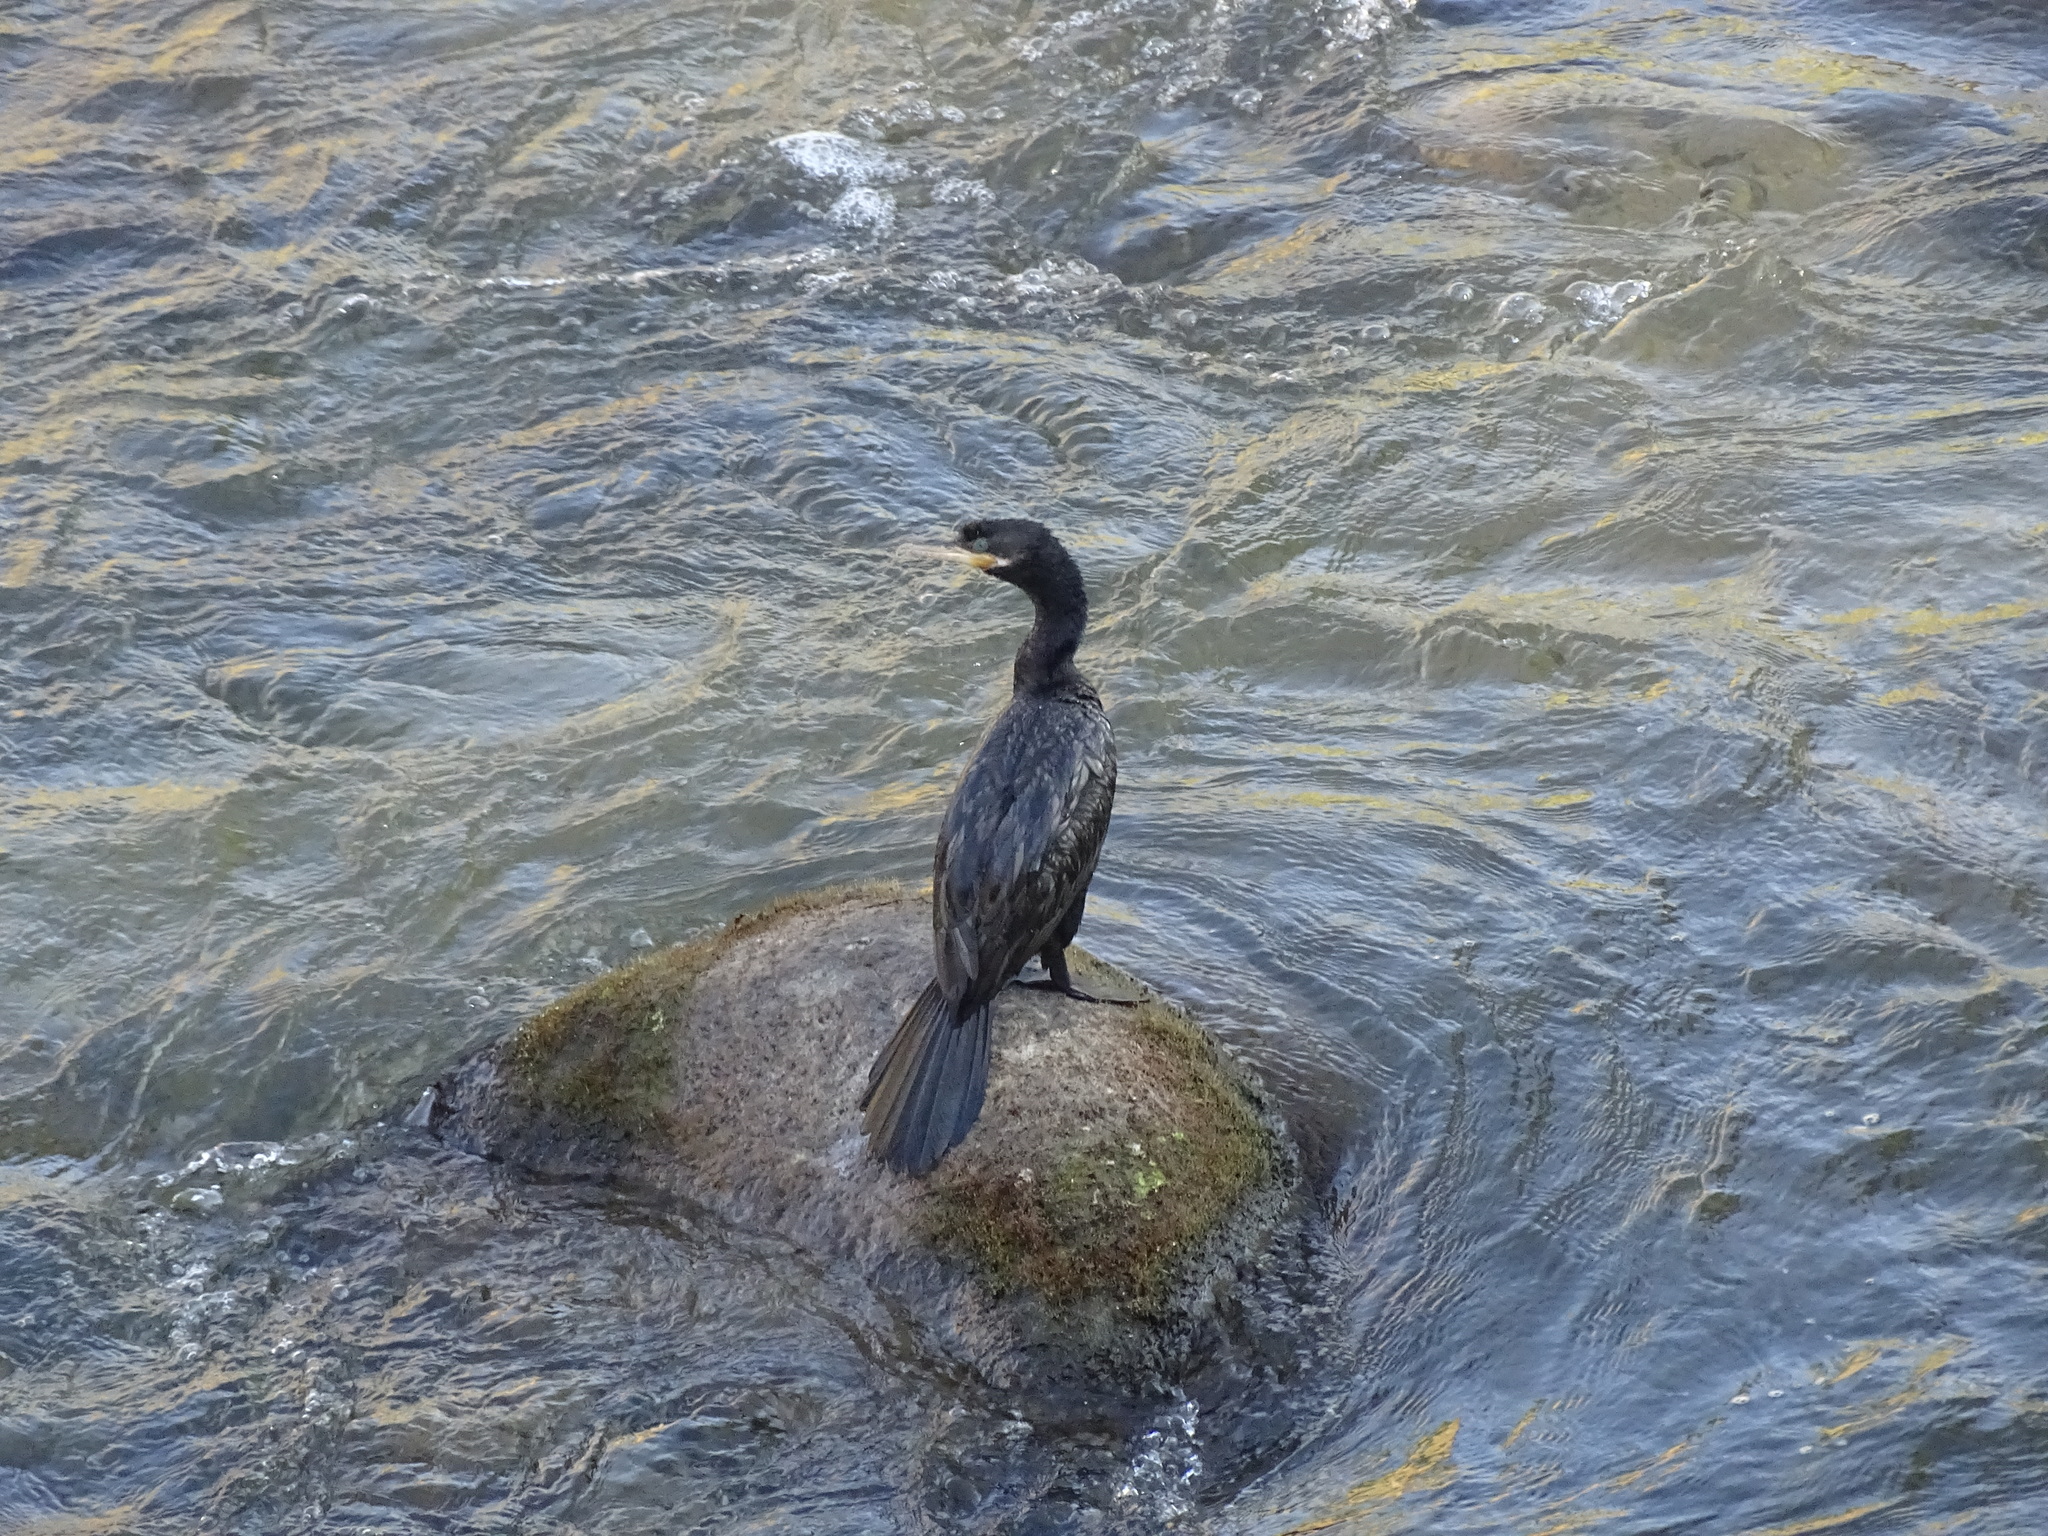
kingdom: Animalia
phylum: Chordata
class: Aves
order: Suliformes
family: Phalacrocoracidae
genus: Phalacrocorax
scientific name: Phalacrocorax brasilianus
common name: Neotropic cormorant
